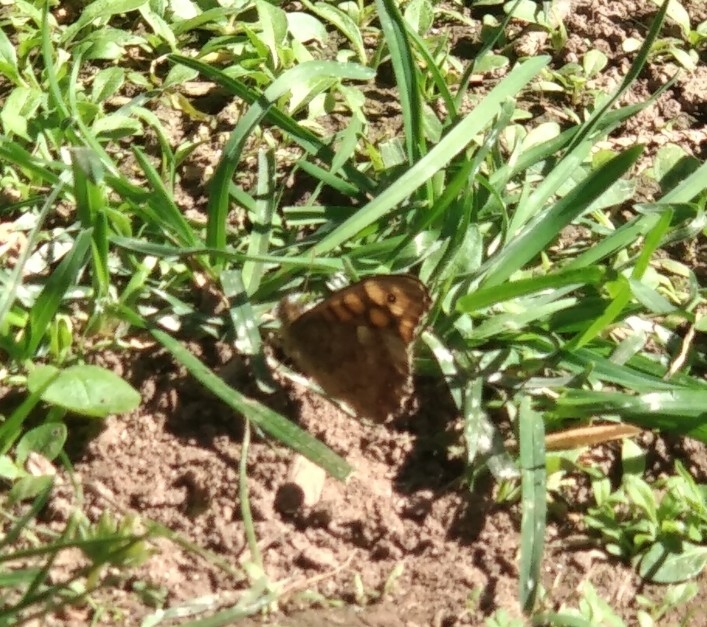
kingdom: Animalia
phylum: Arthropoda
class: Insecta
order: Lepidoptera
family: Nymphalidae
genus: Pararge
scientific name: Pararge aegeria
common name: Speckled wood
